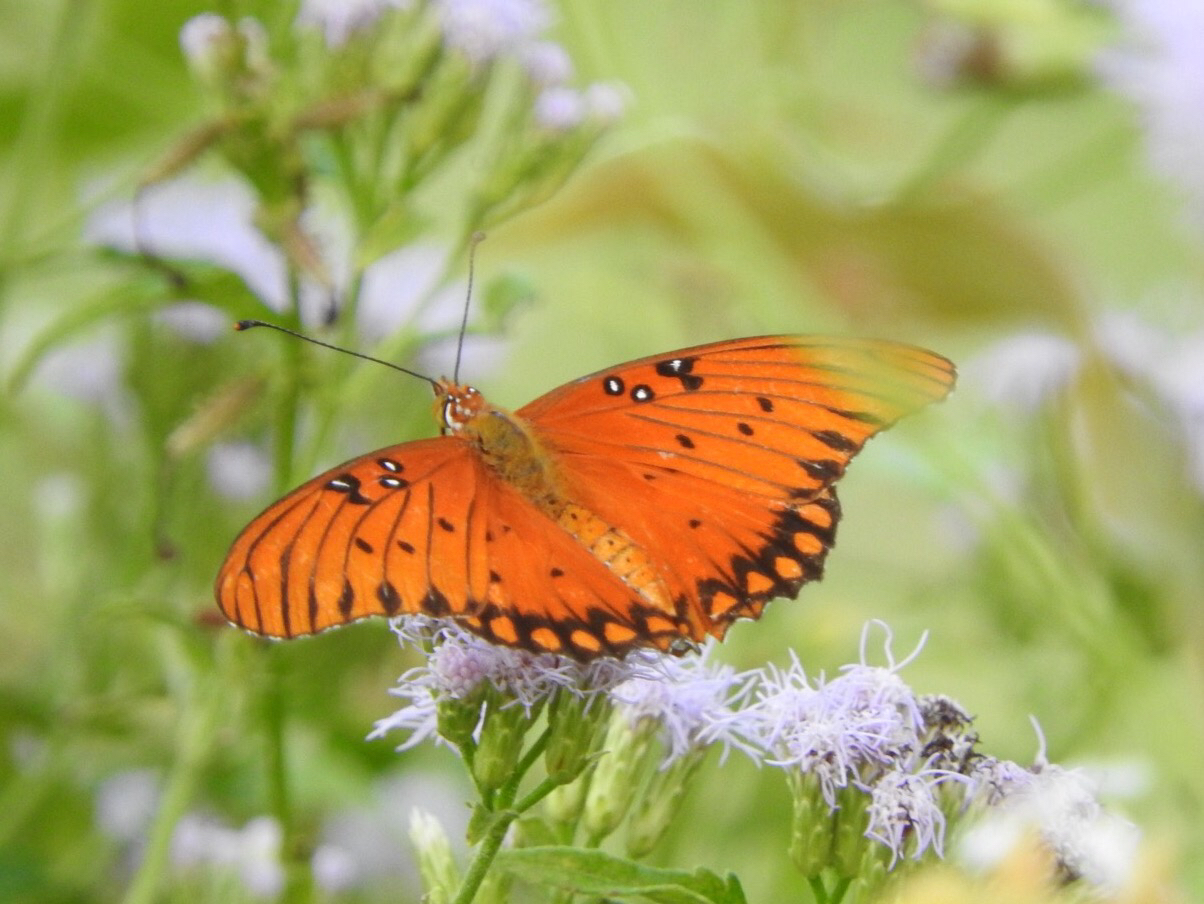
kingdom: Animalia
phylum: Arthropoda
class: Insecta
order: Lepidoptera
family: Nymphalidae
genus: Dione
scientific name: Dione vanillae
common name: Gulf fritillary
